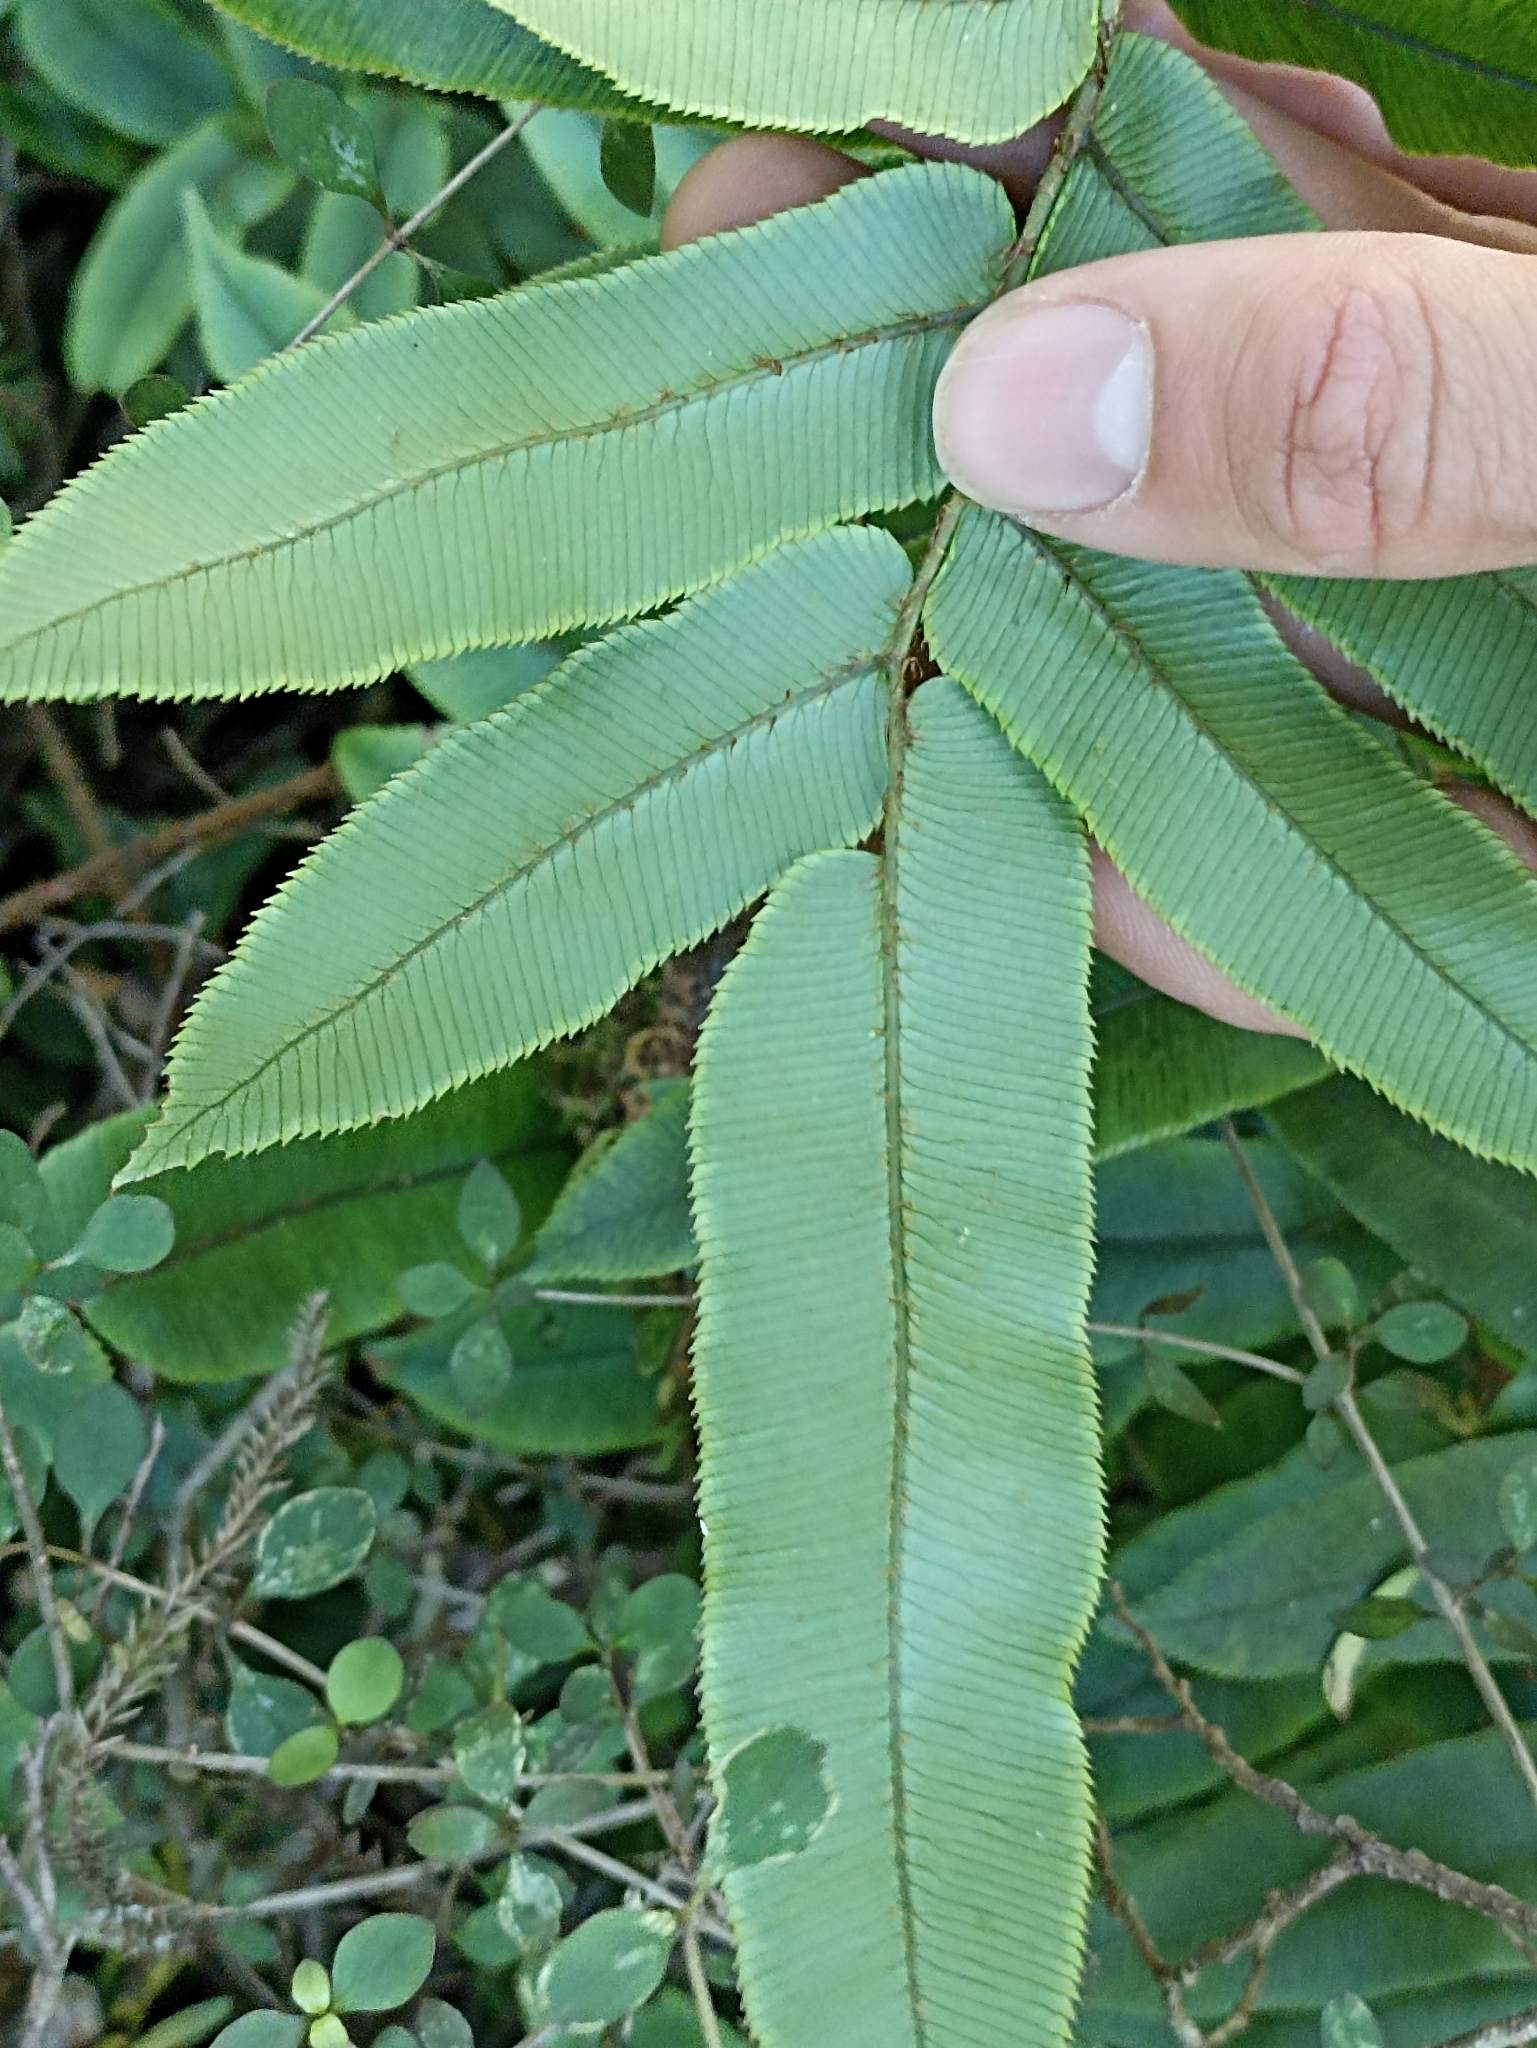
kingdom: Plantae
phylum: Tracheophyta
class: Polypodiopsida
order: Polypodiales
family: Blechnaceae
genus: Parablechnum
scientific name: Parablechnum procerum
